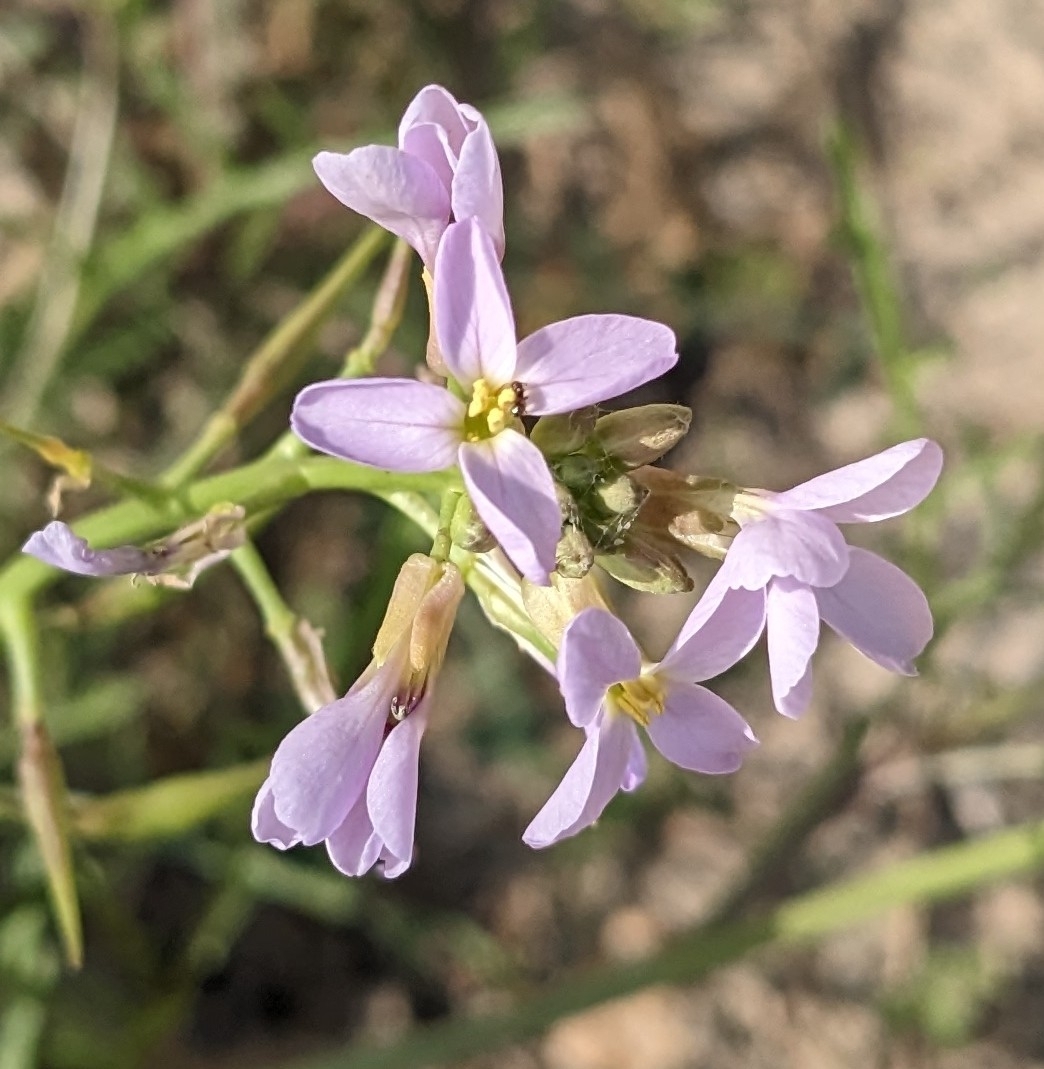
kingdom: Plantae
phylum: Tracheophyta
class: Magnoliopsida
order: Brassicales
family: Brassicaceae
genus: Cakile
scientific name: Cakile maritima
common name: Sea rocket
